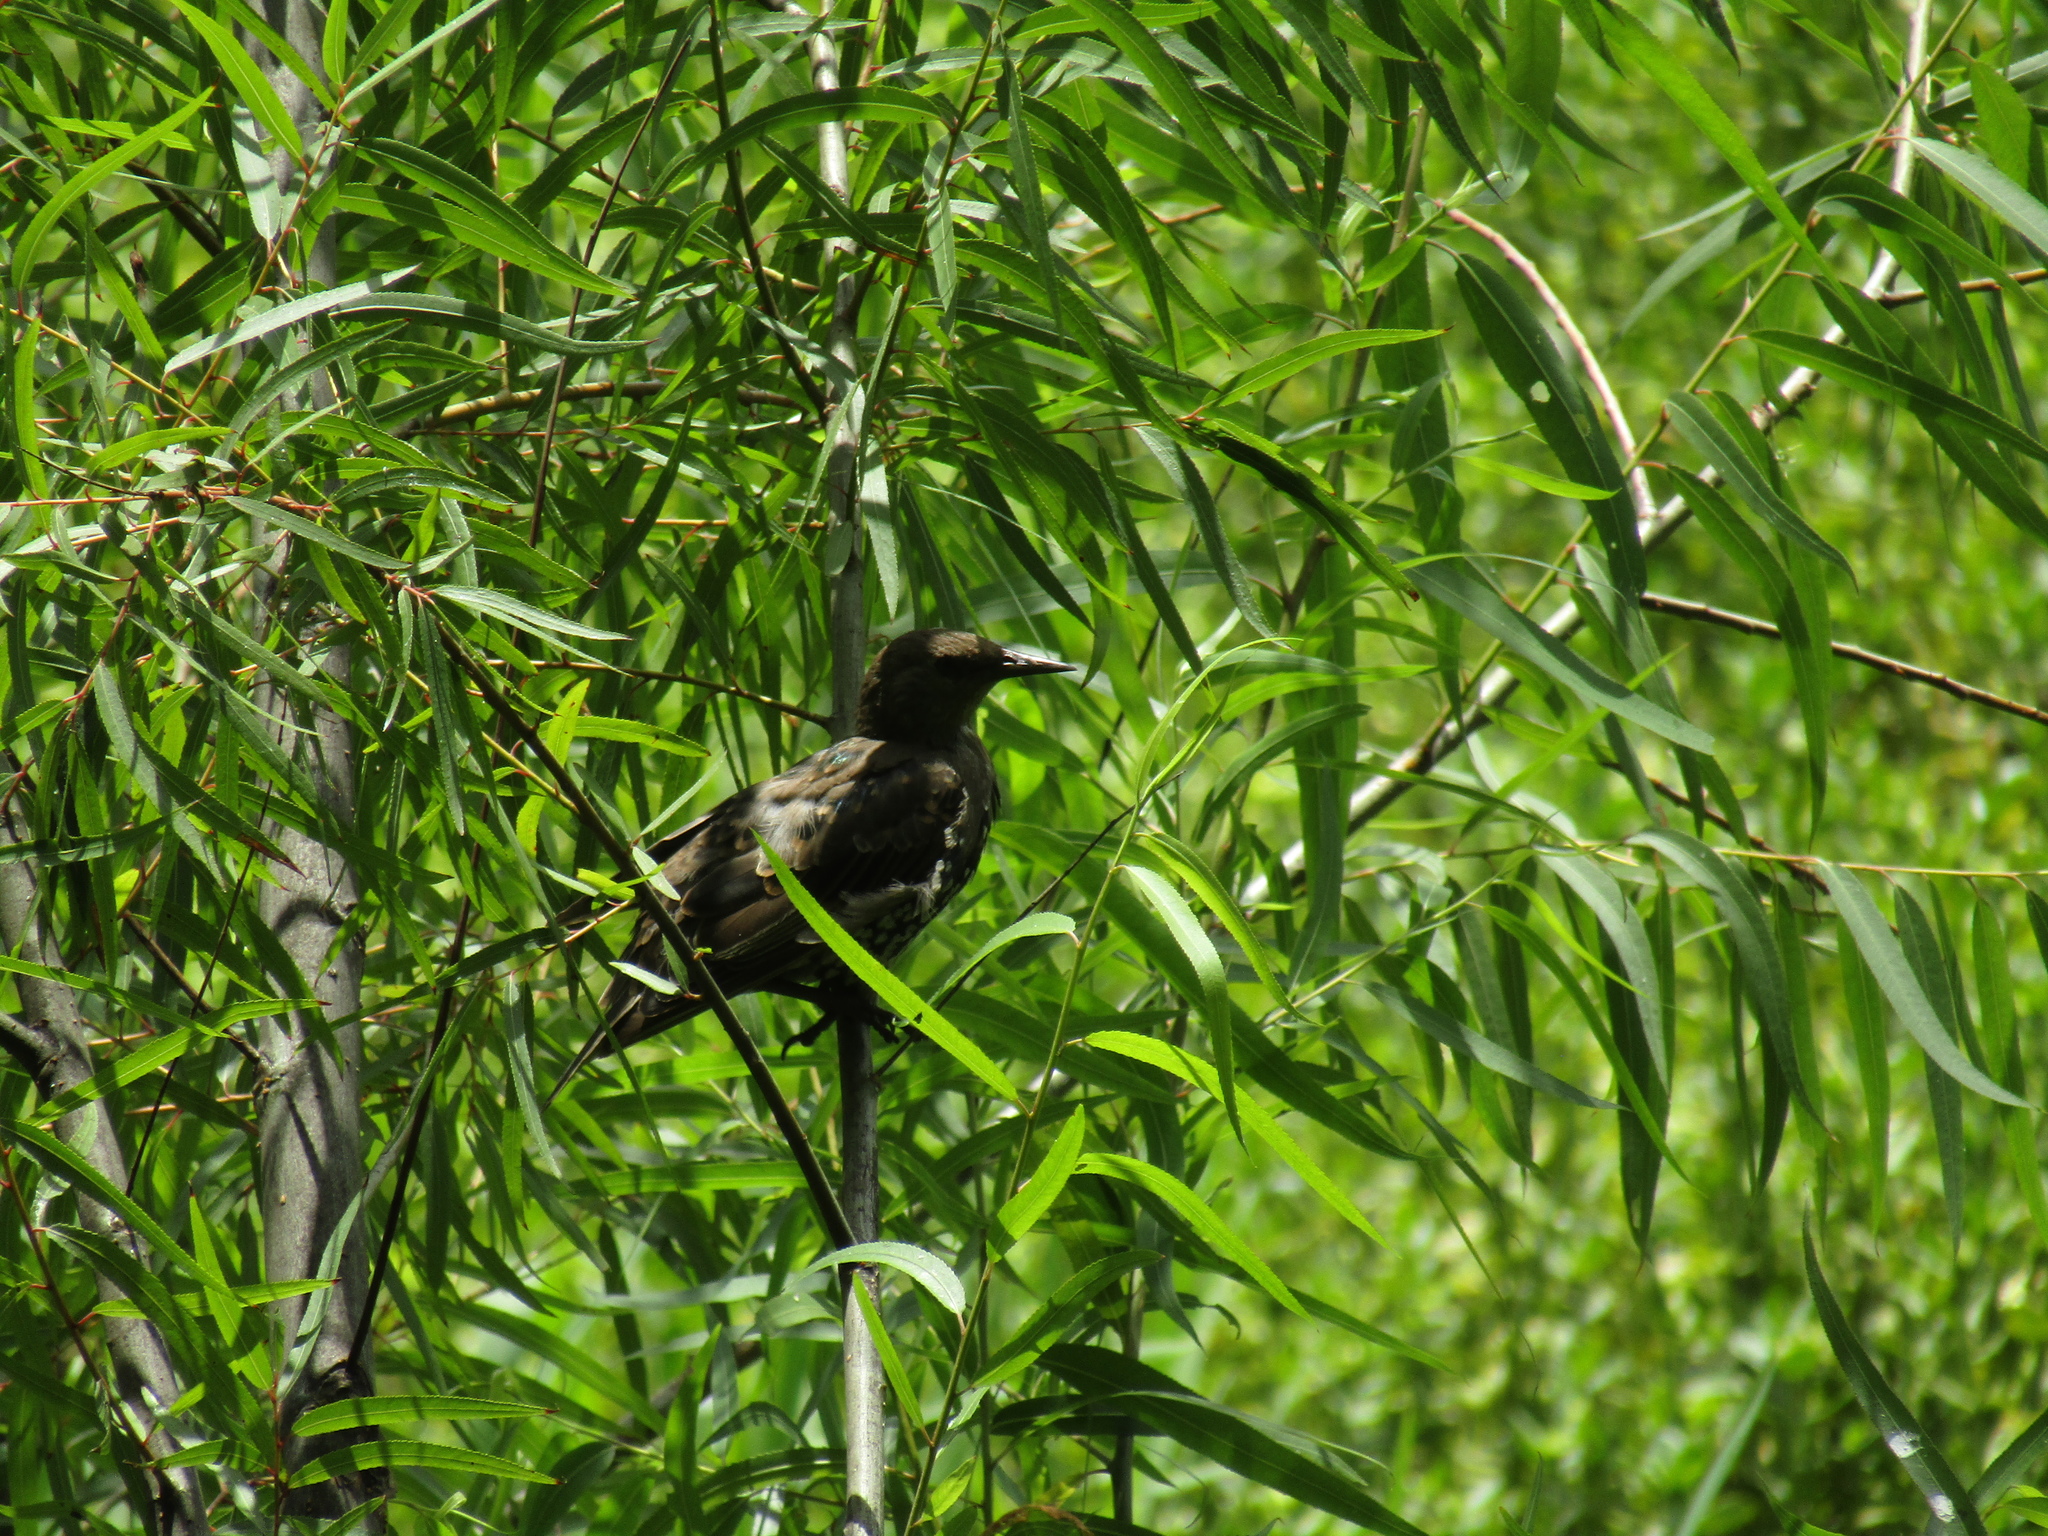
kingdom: Animalia
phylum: Chordata
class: Aves
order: Passeriformes
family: Sturnidae
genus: Sturnus
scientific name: Sturnus vulgaris
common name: Common starling
